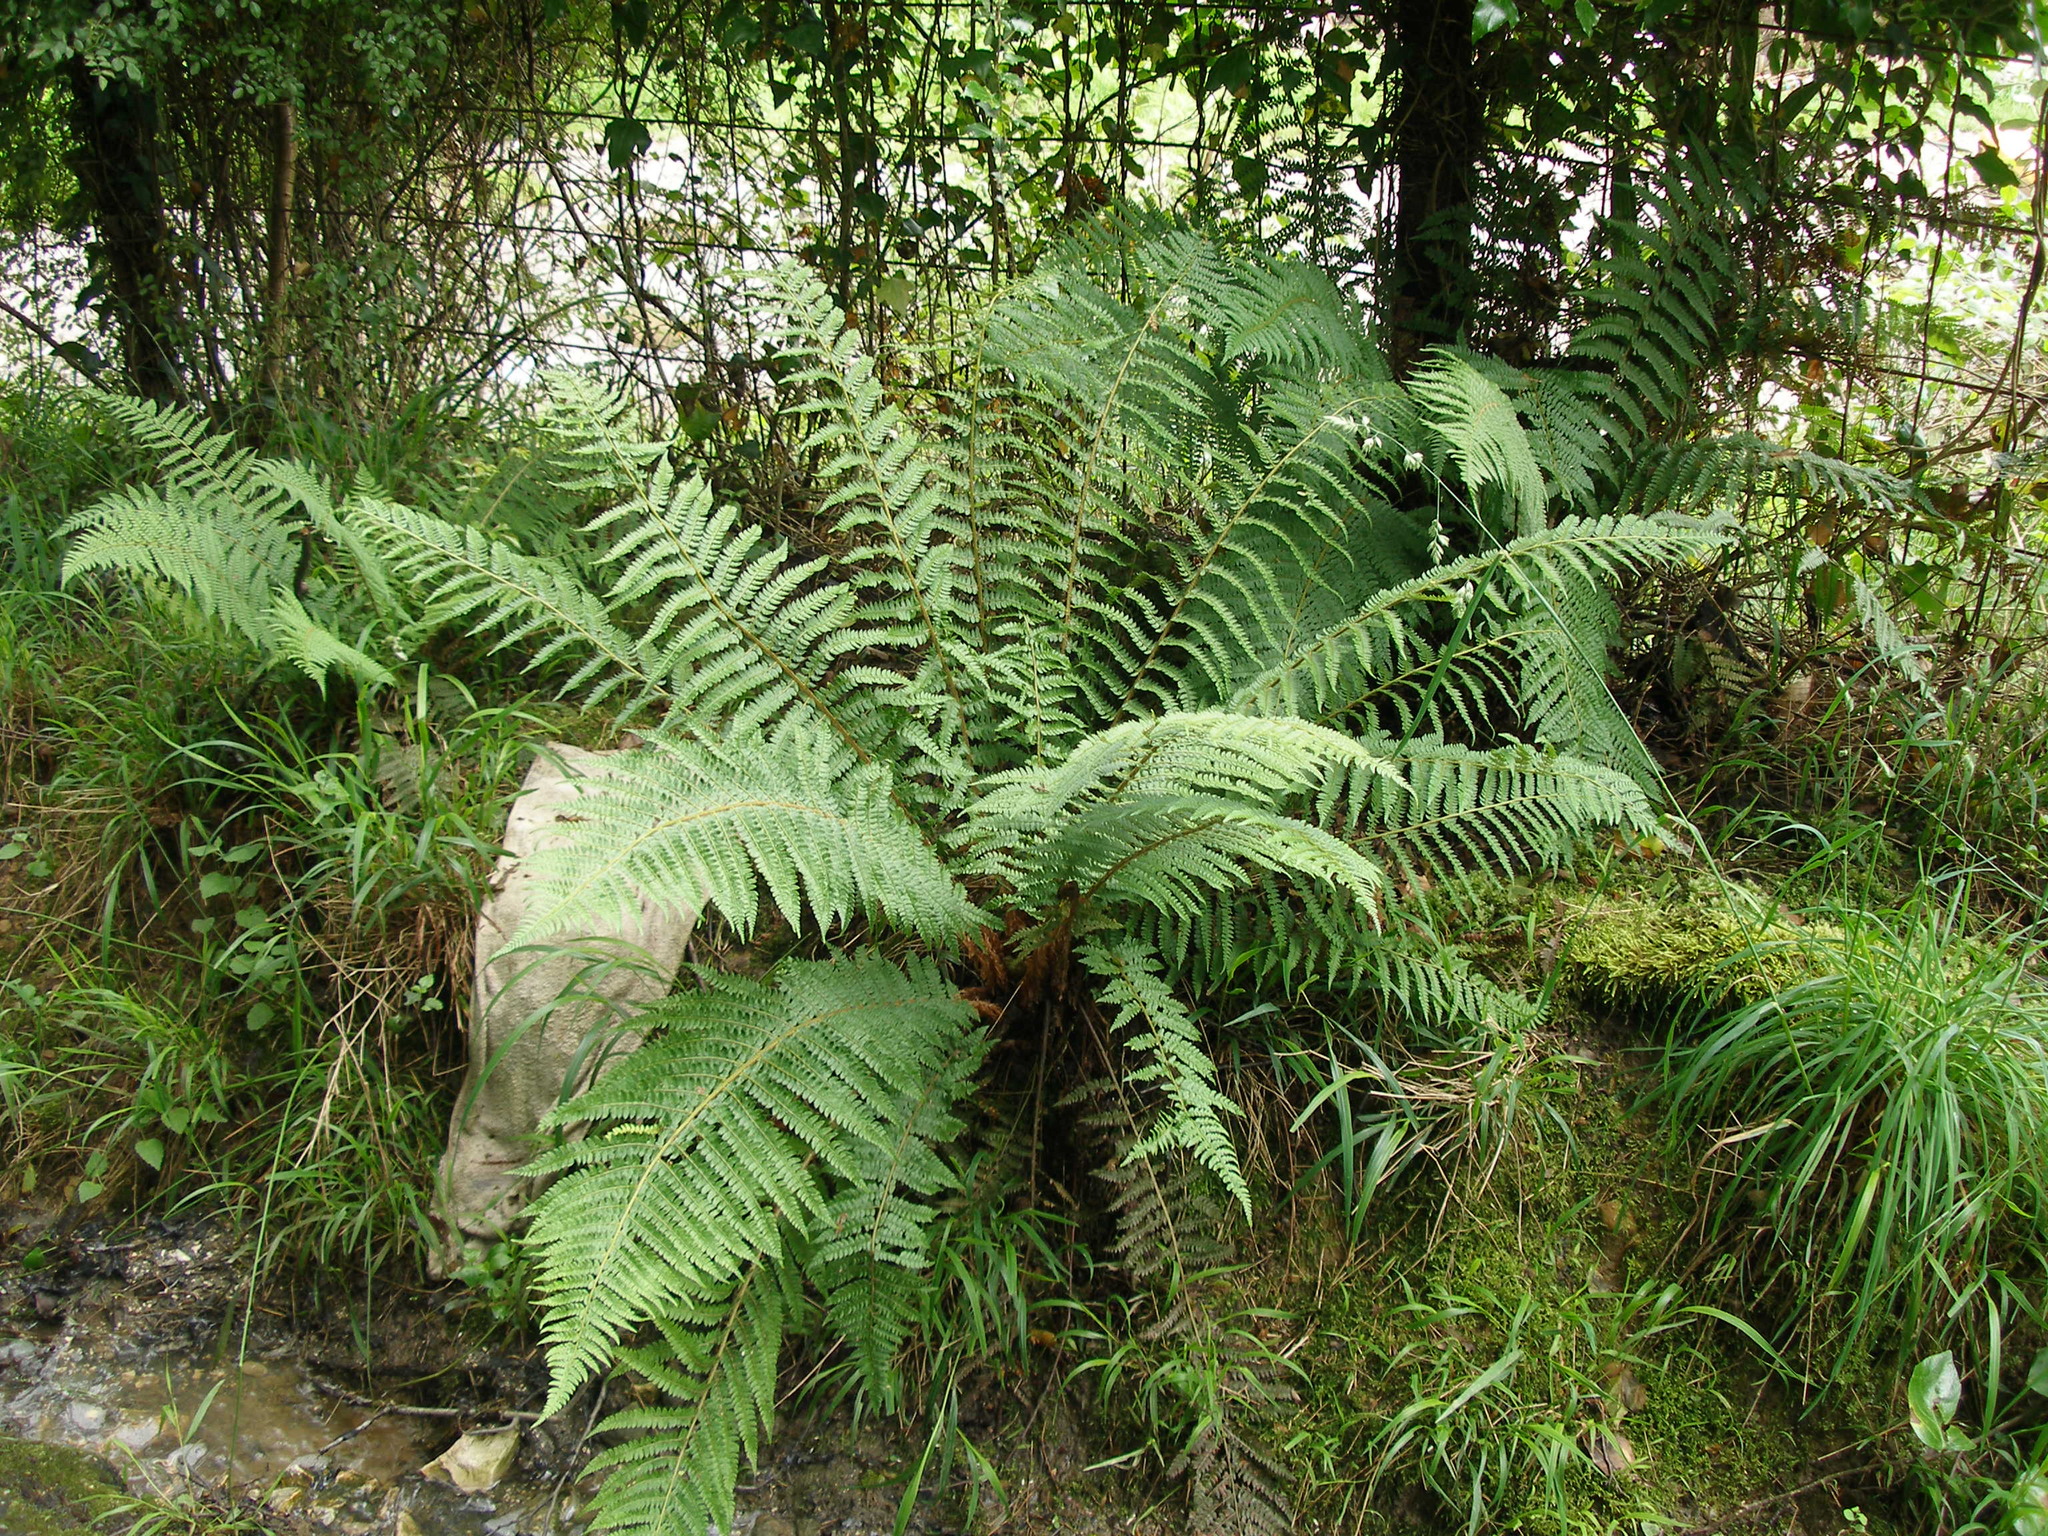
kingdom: Plantae
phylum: Tracheophyta
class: Polypodiopsida
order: Polypodiales
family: Dryopteridaceae
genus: Polystichum
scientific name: Polystichum setiferum
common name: Soft shield-fern
